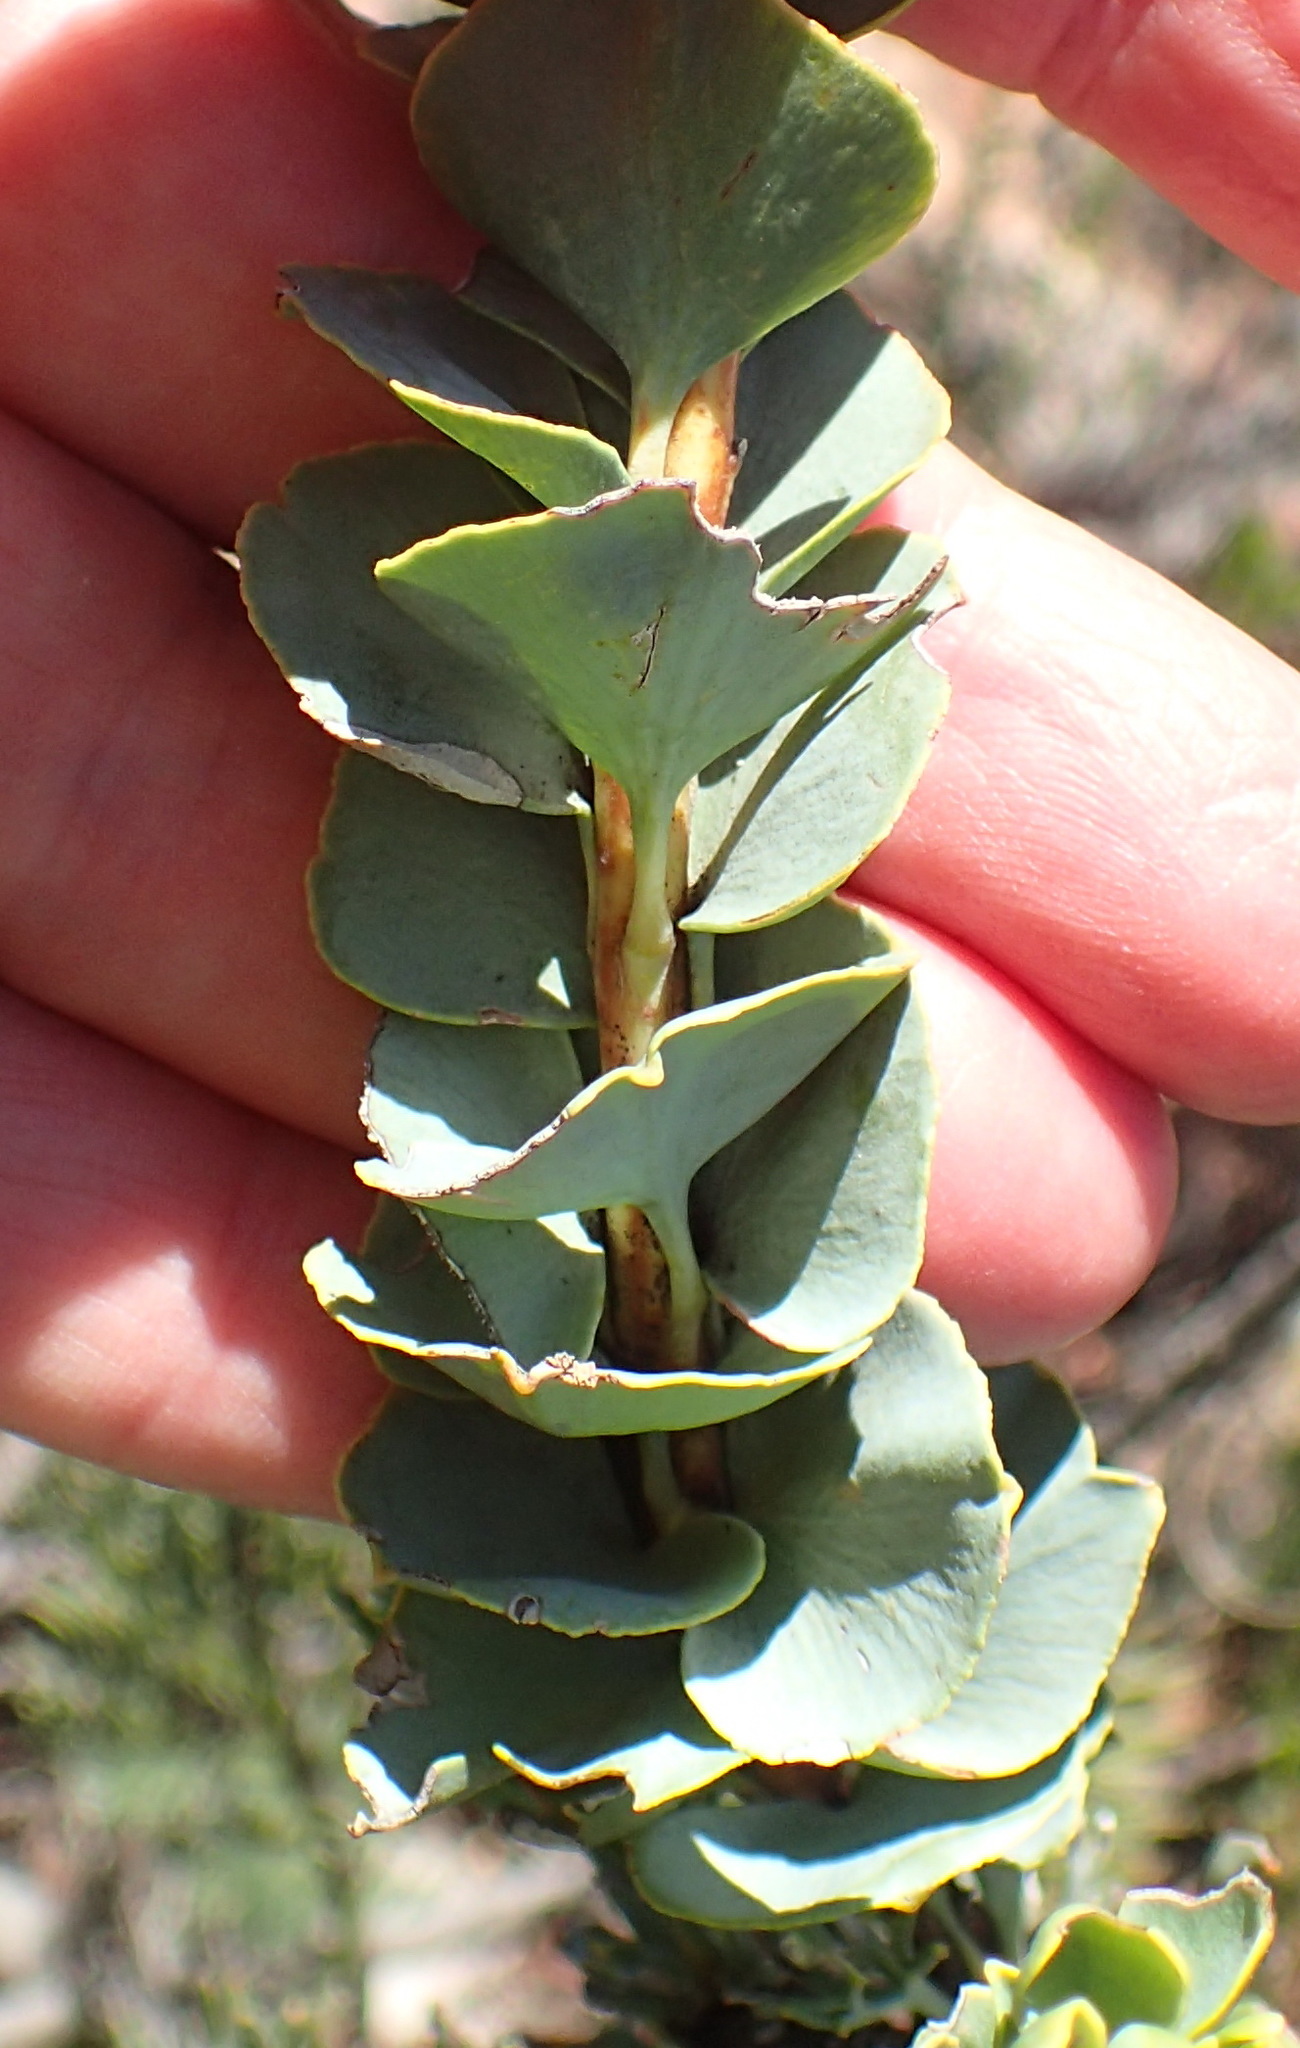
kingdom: Plantae
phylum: Tracheophyta
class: Magnoliopsida
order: Proteales
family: Proteaceae
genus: Paranomus
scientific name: Paranomus roodebergensis
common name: Honey-scented sceptre
